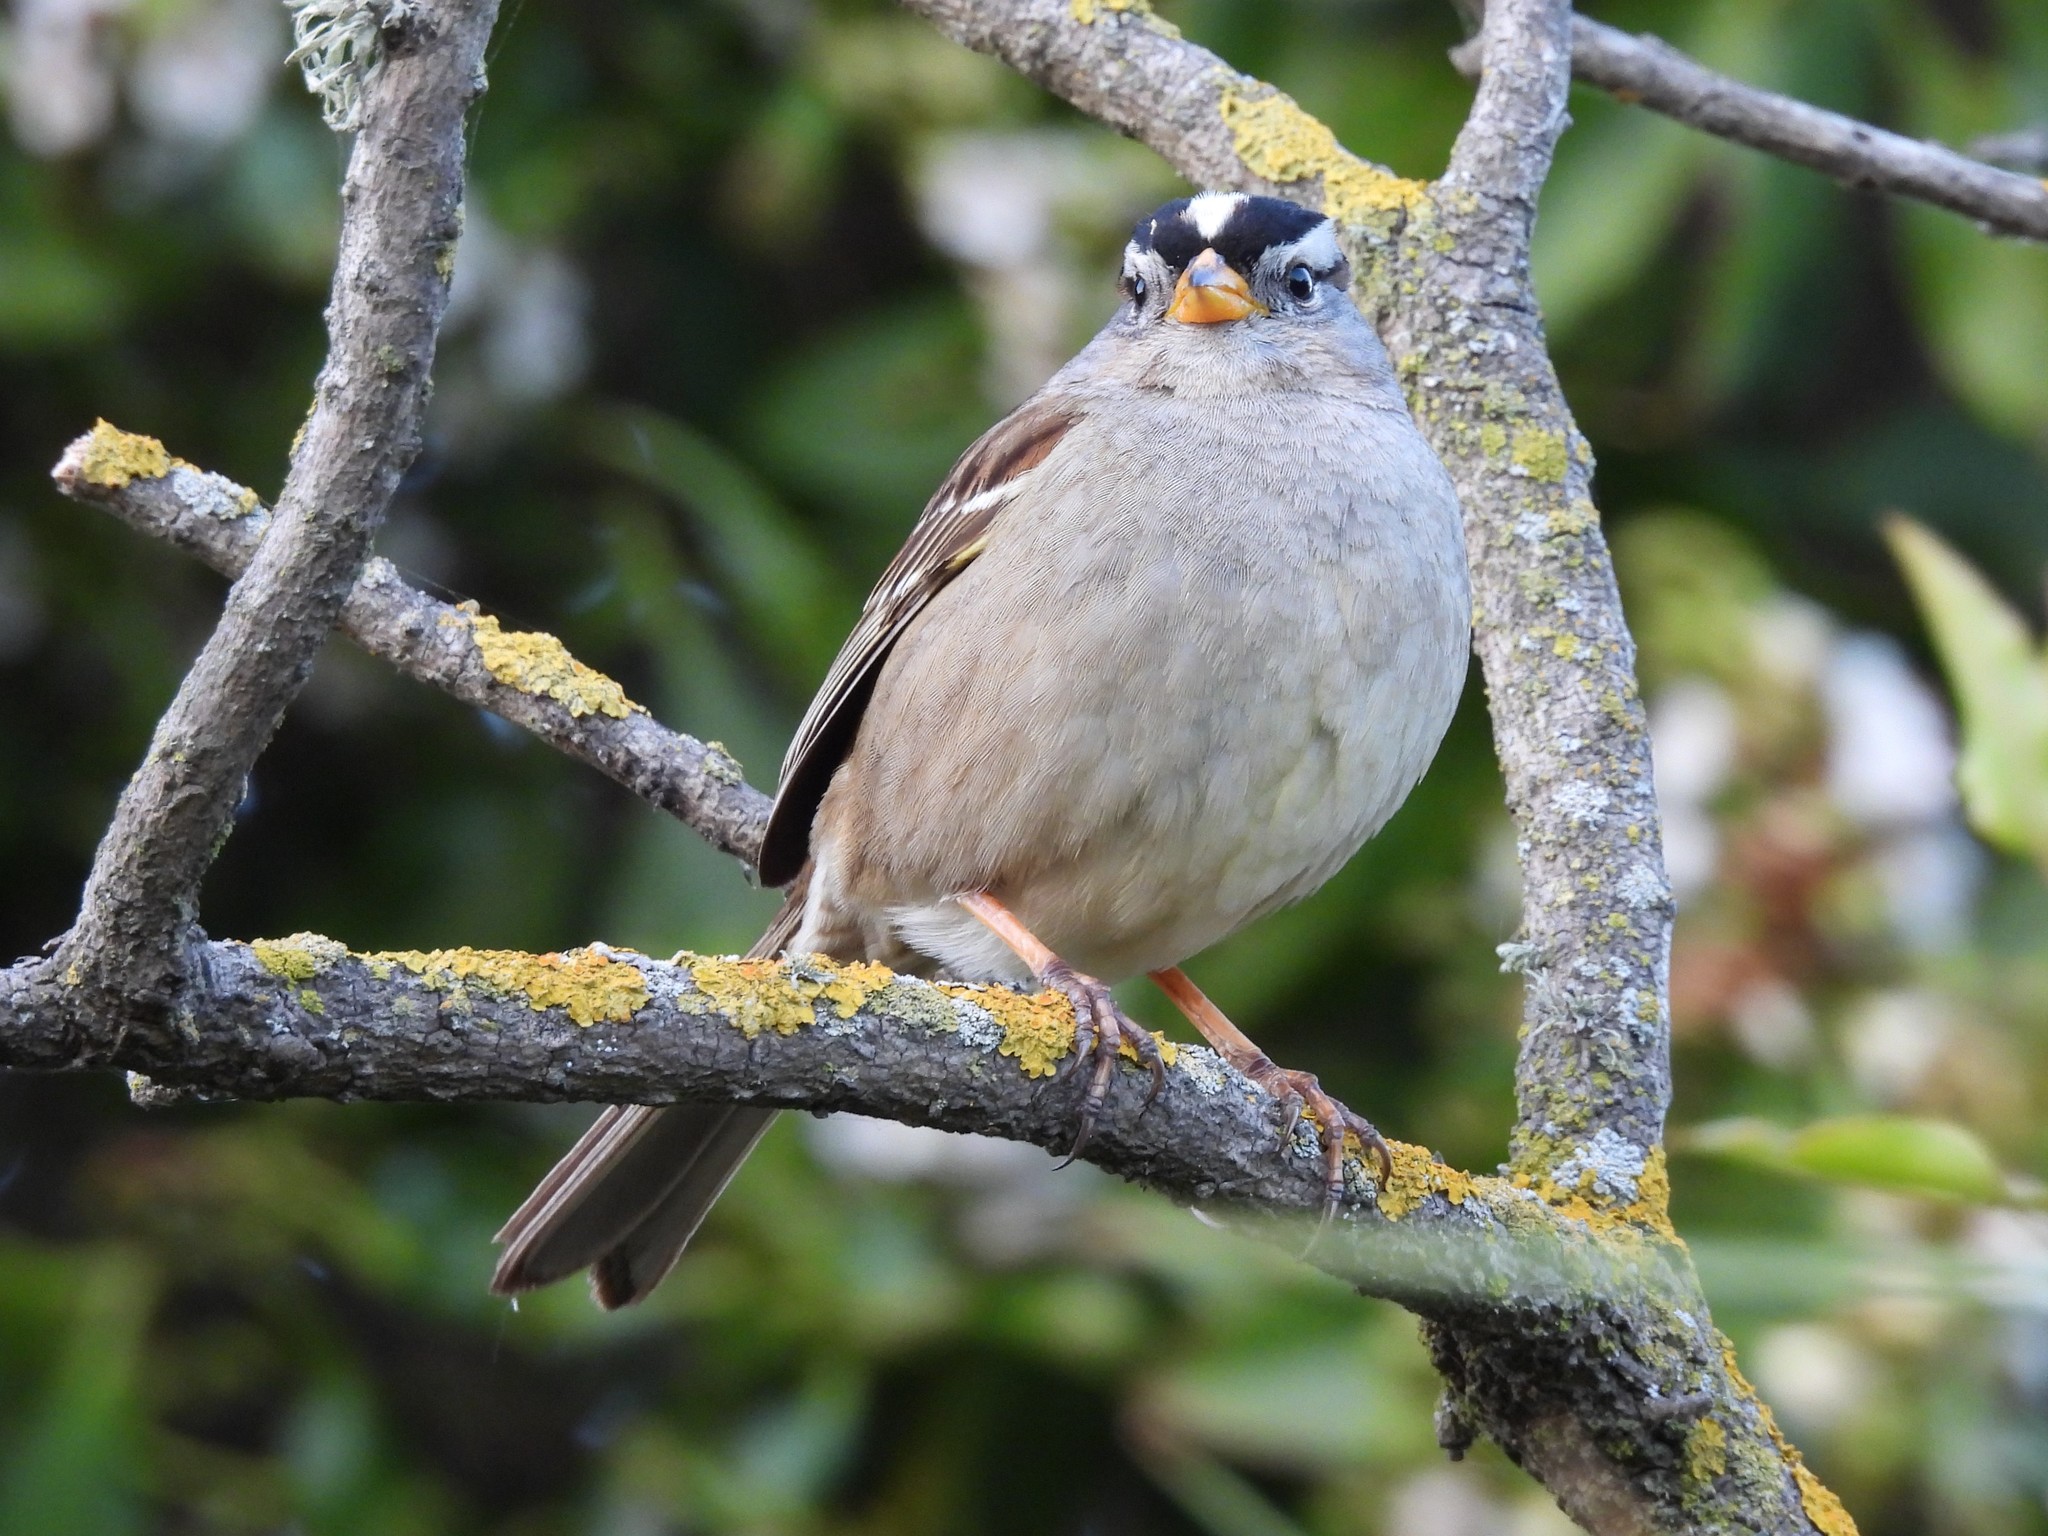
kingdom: Animalia
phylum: Chordata
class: Aves
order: Passeriformes
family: Passerellidae
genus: Zonotrichia
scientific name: Zonotrichia leucophrys
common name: White-crowned sparrow
